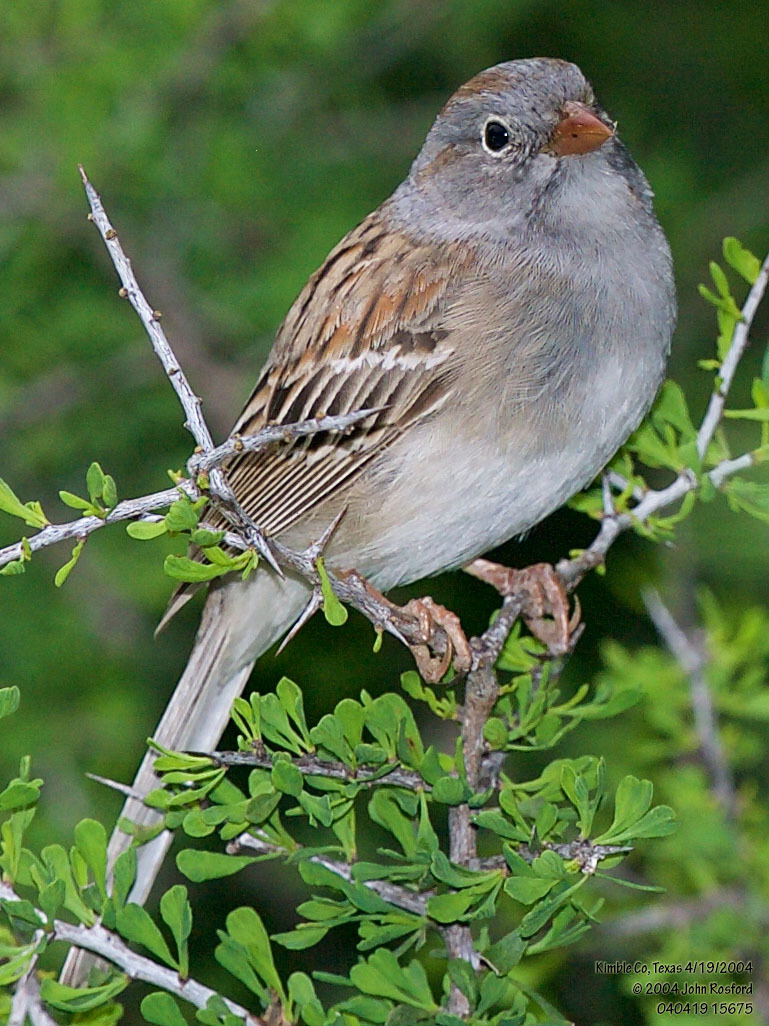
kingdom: Animalia
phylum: Chordata
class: Aves
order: Passeriformes
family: Passerellidae
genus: Spizella
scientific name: Spizella pusilla
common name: Field sparrow
